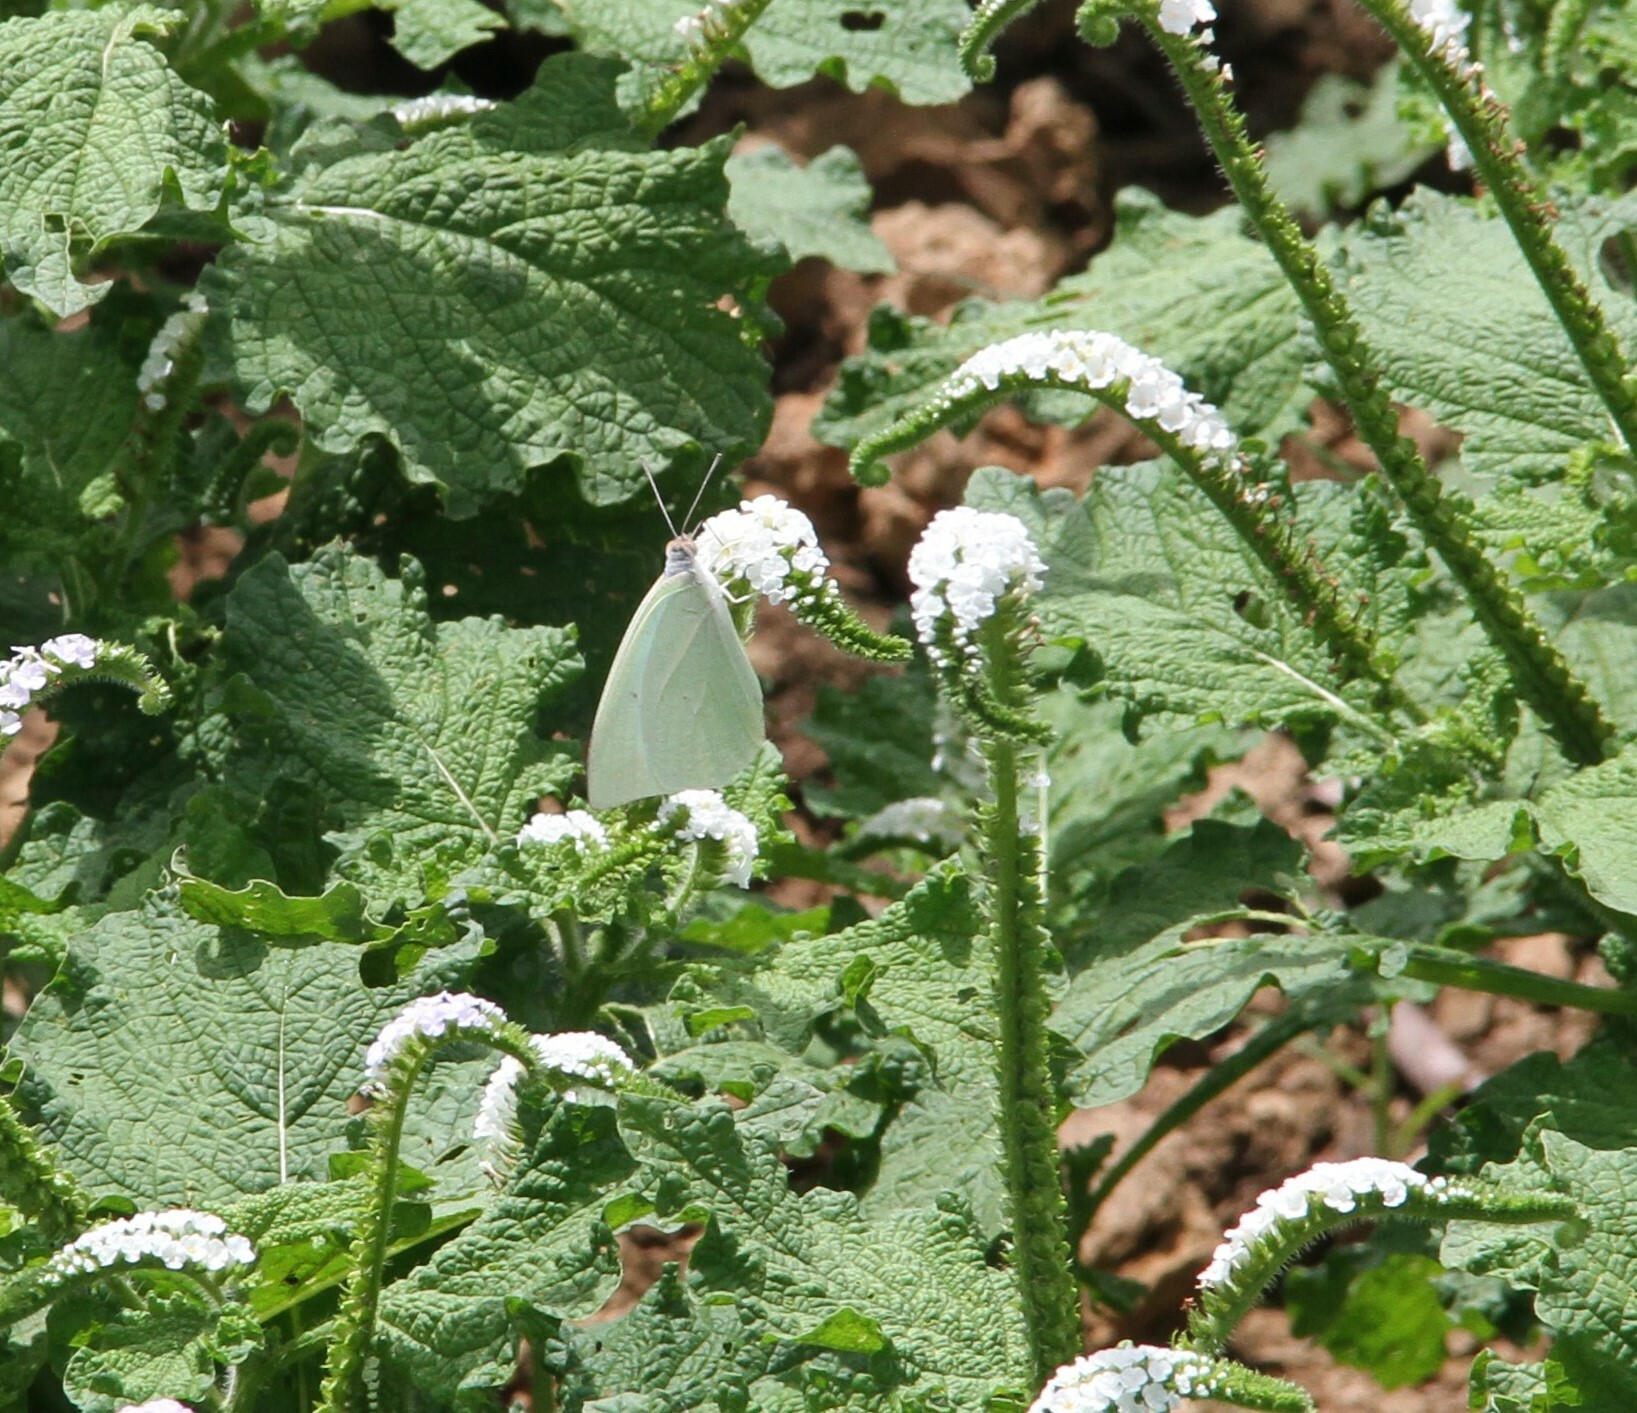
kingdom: Animalia
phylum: Arthropoda
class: Insecta
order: Lepidoptera
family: Pieridae
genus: Catopsilia
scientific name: Catopsilia florella
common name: African migrant
